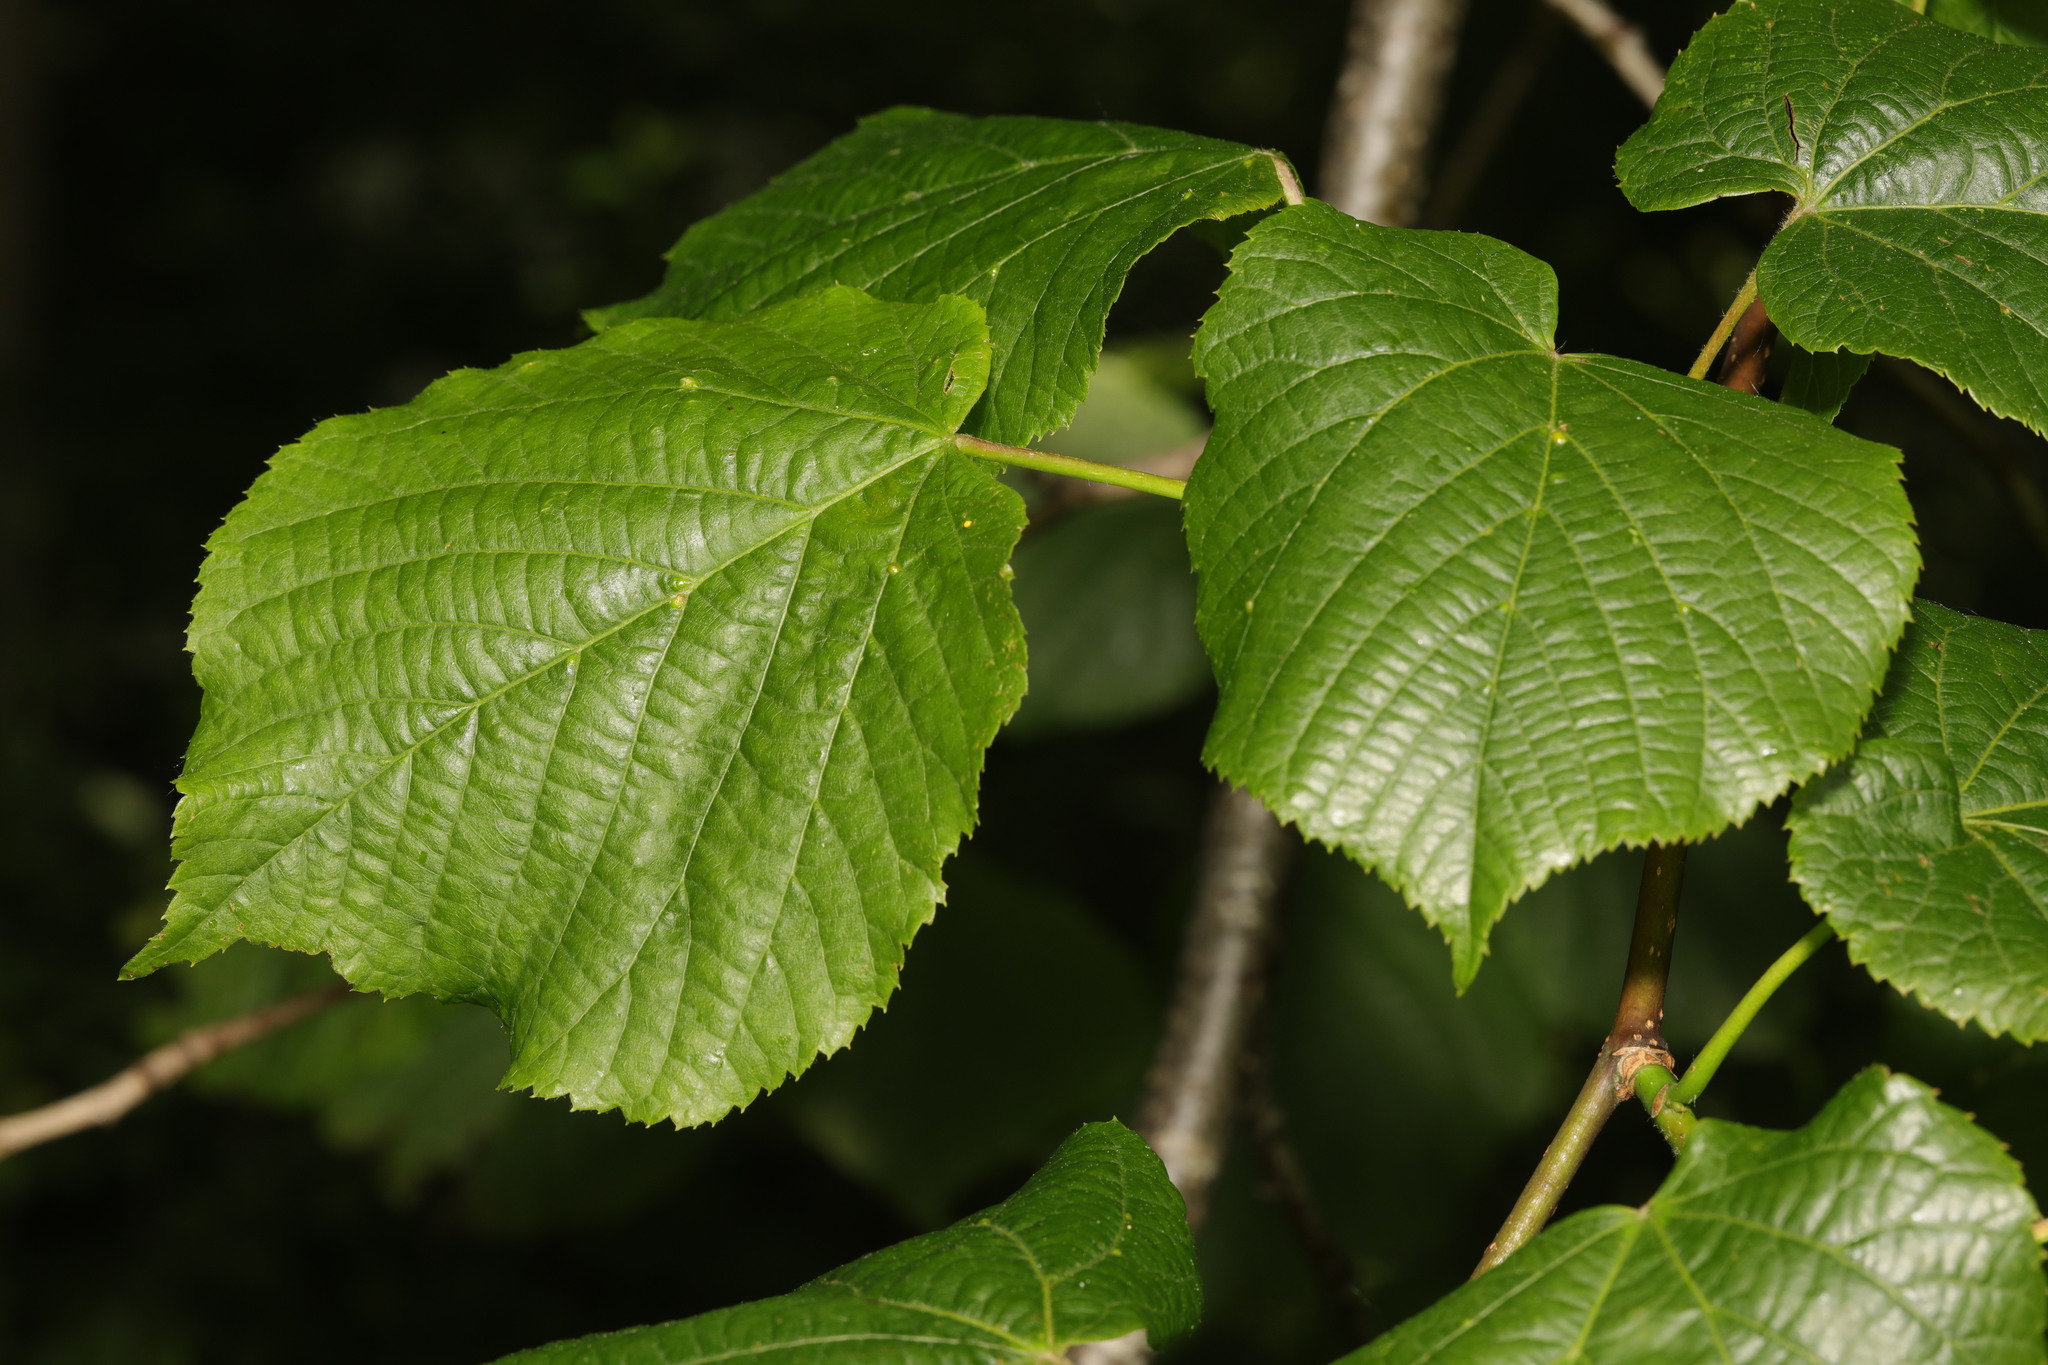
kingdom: Plantae
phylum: Tracheophyta
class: Magnoliopsida
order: Malvales
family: Malvaceae
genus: Tilia
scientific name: Tilia europaea
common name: European linden
